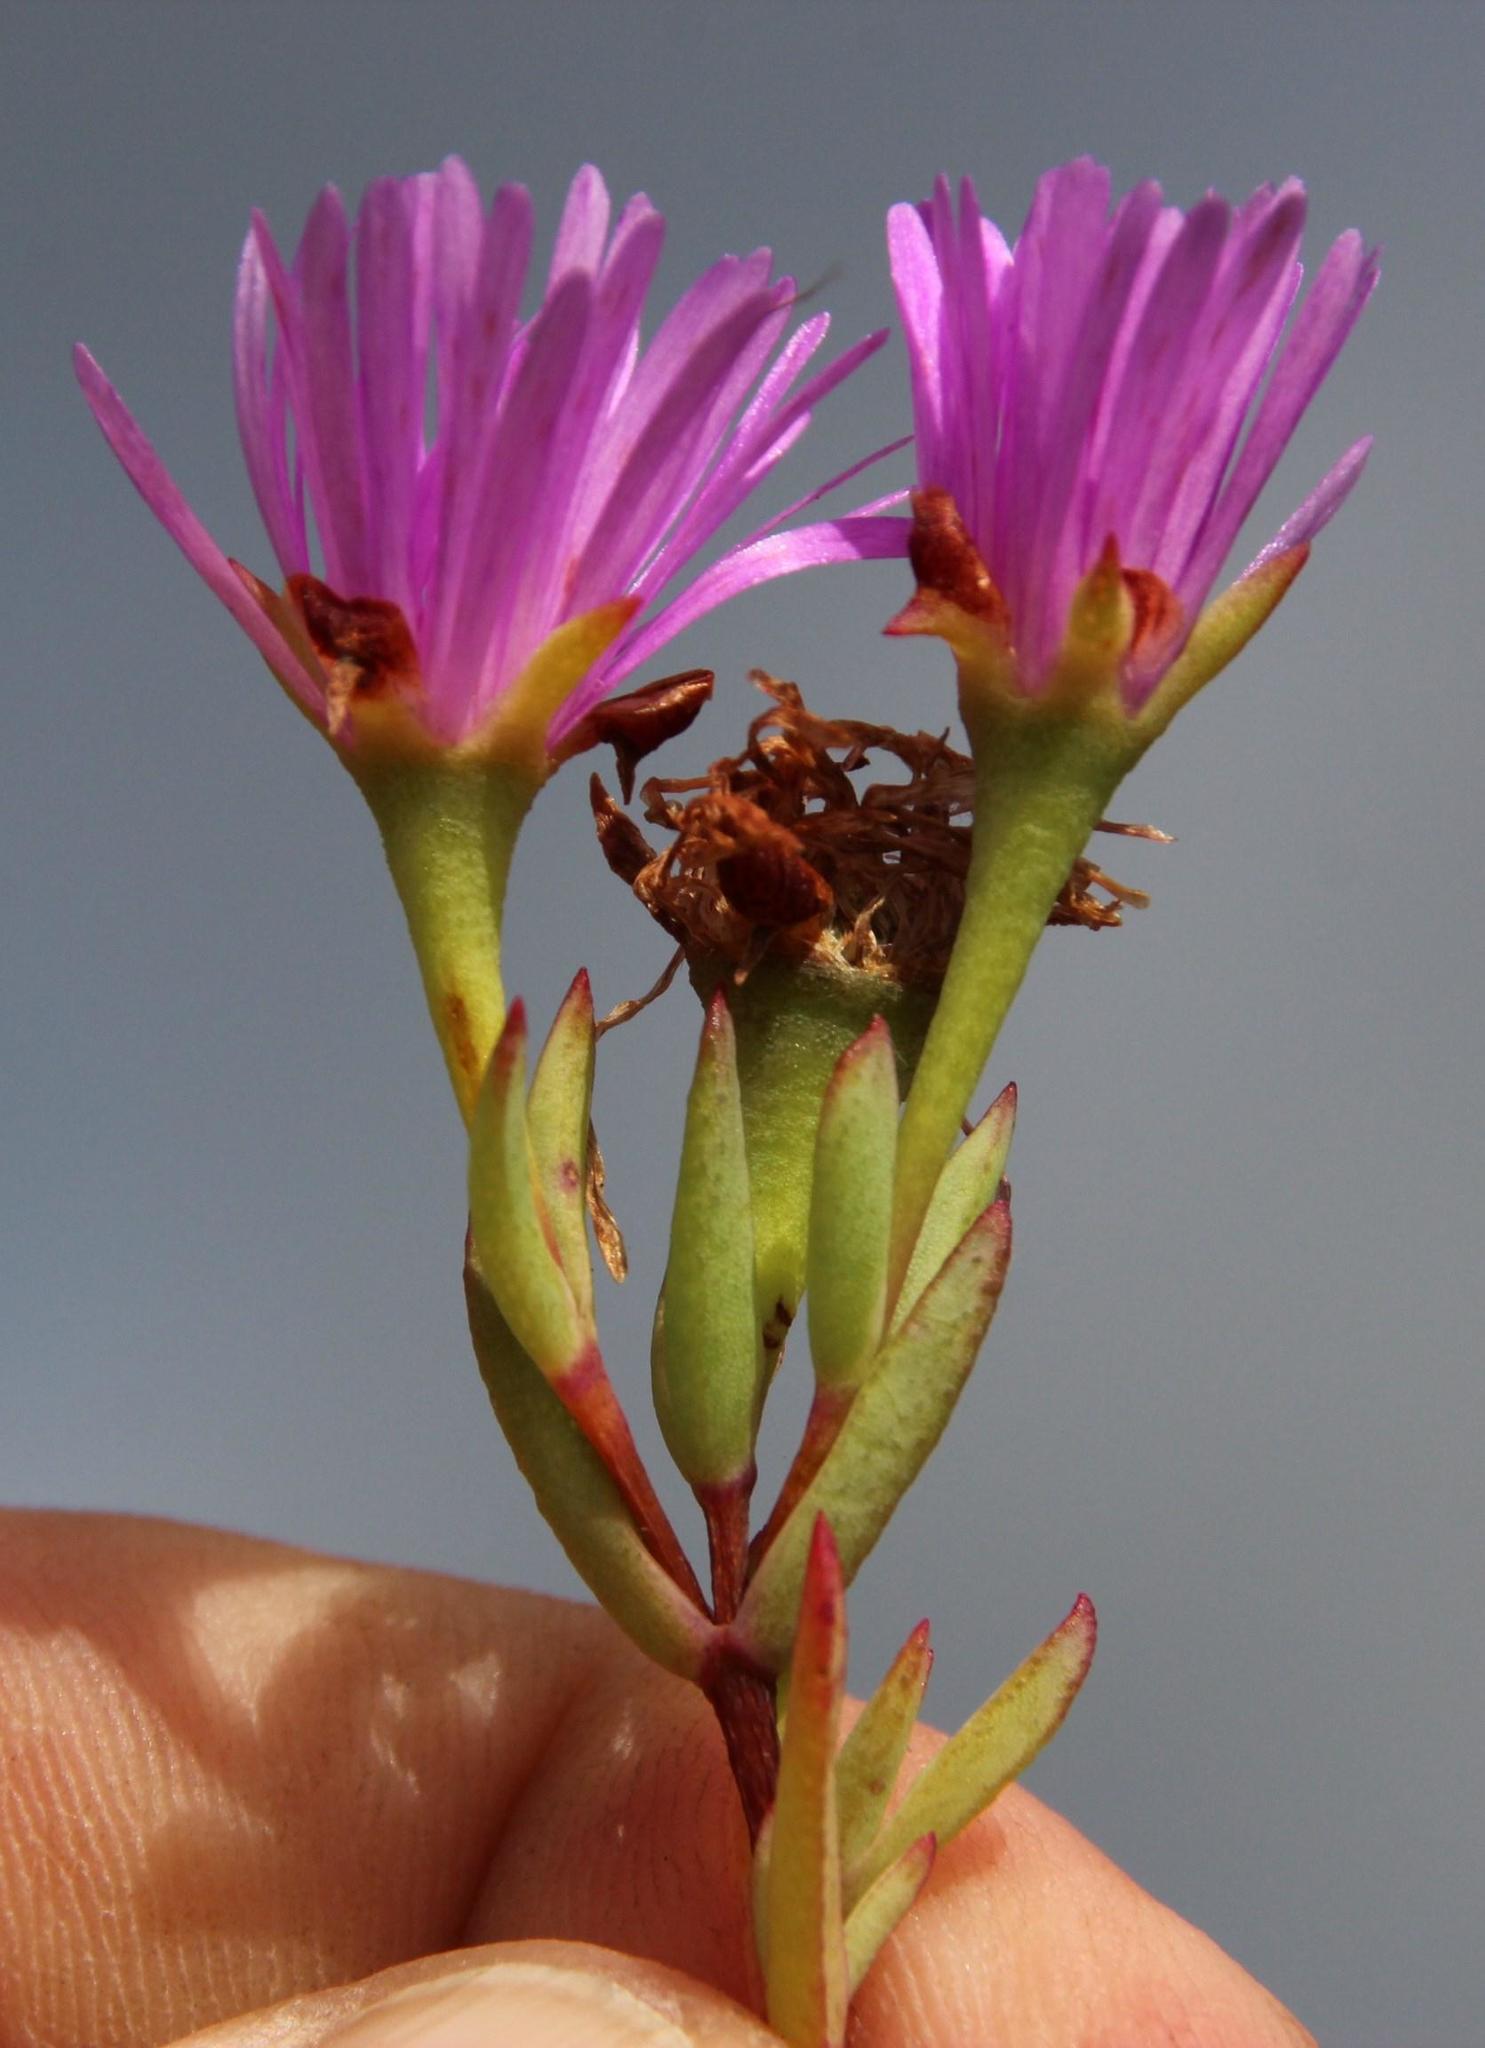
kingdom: Plantae
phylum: Tracheophyta
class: Magnoliopsida
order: Caryophyllales
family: Aizoaceae
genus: Lampranthus
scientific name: Lampranthus emarginatus
